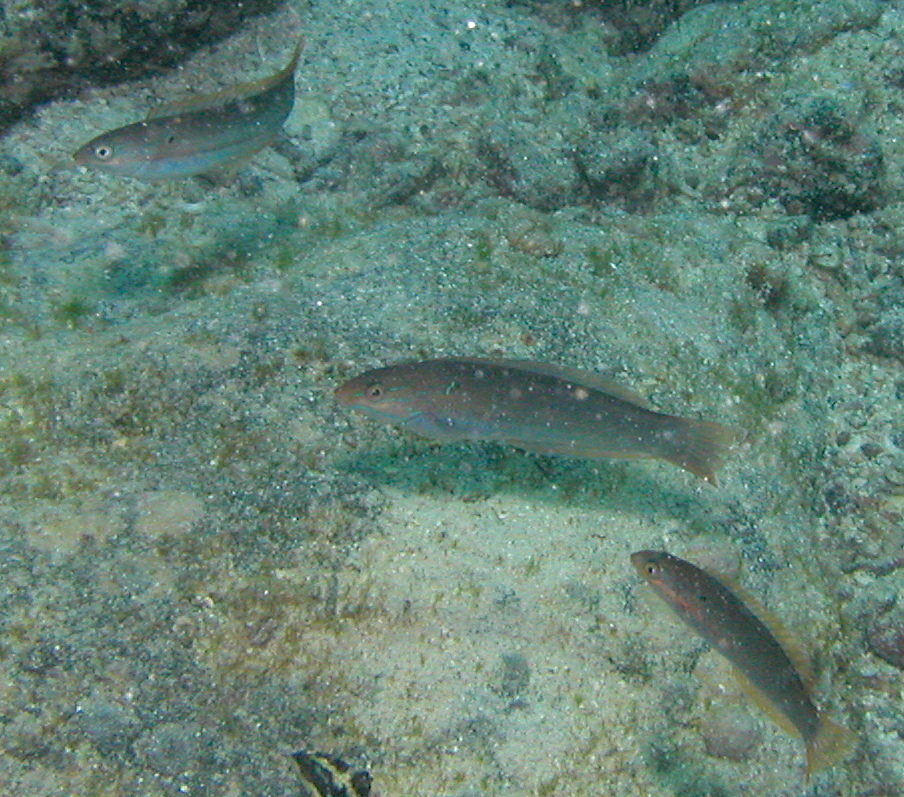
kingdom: Animalia
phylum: Chordata
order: Perciformes
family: Labridae
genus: Halichoeres
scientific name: Halichoeres dispilus
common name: Chameleon wrasse
